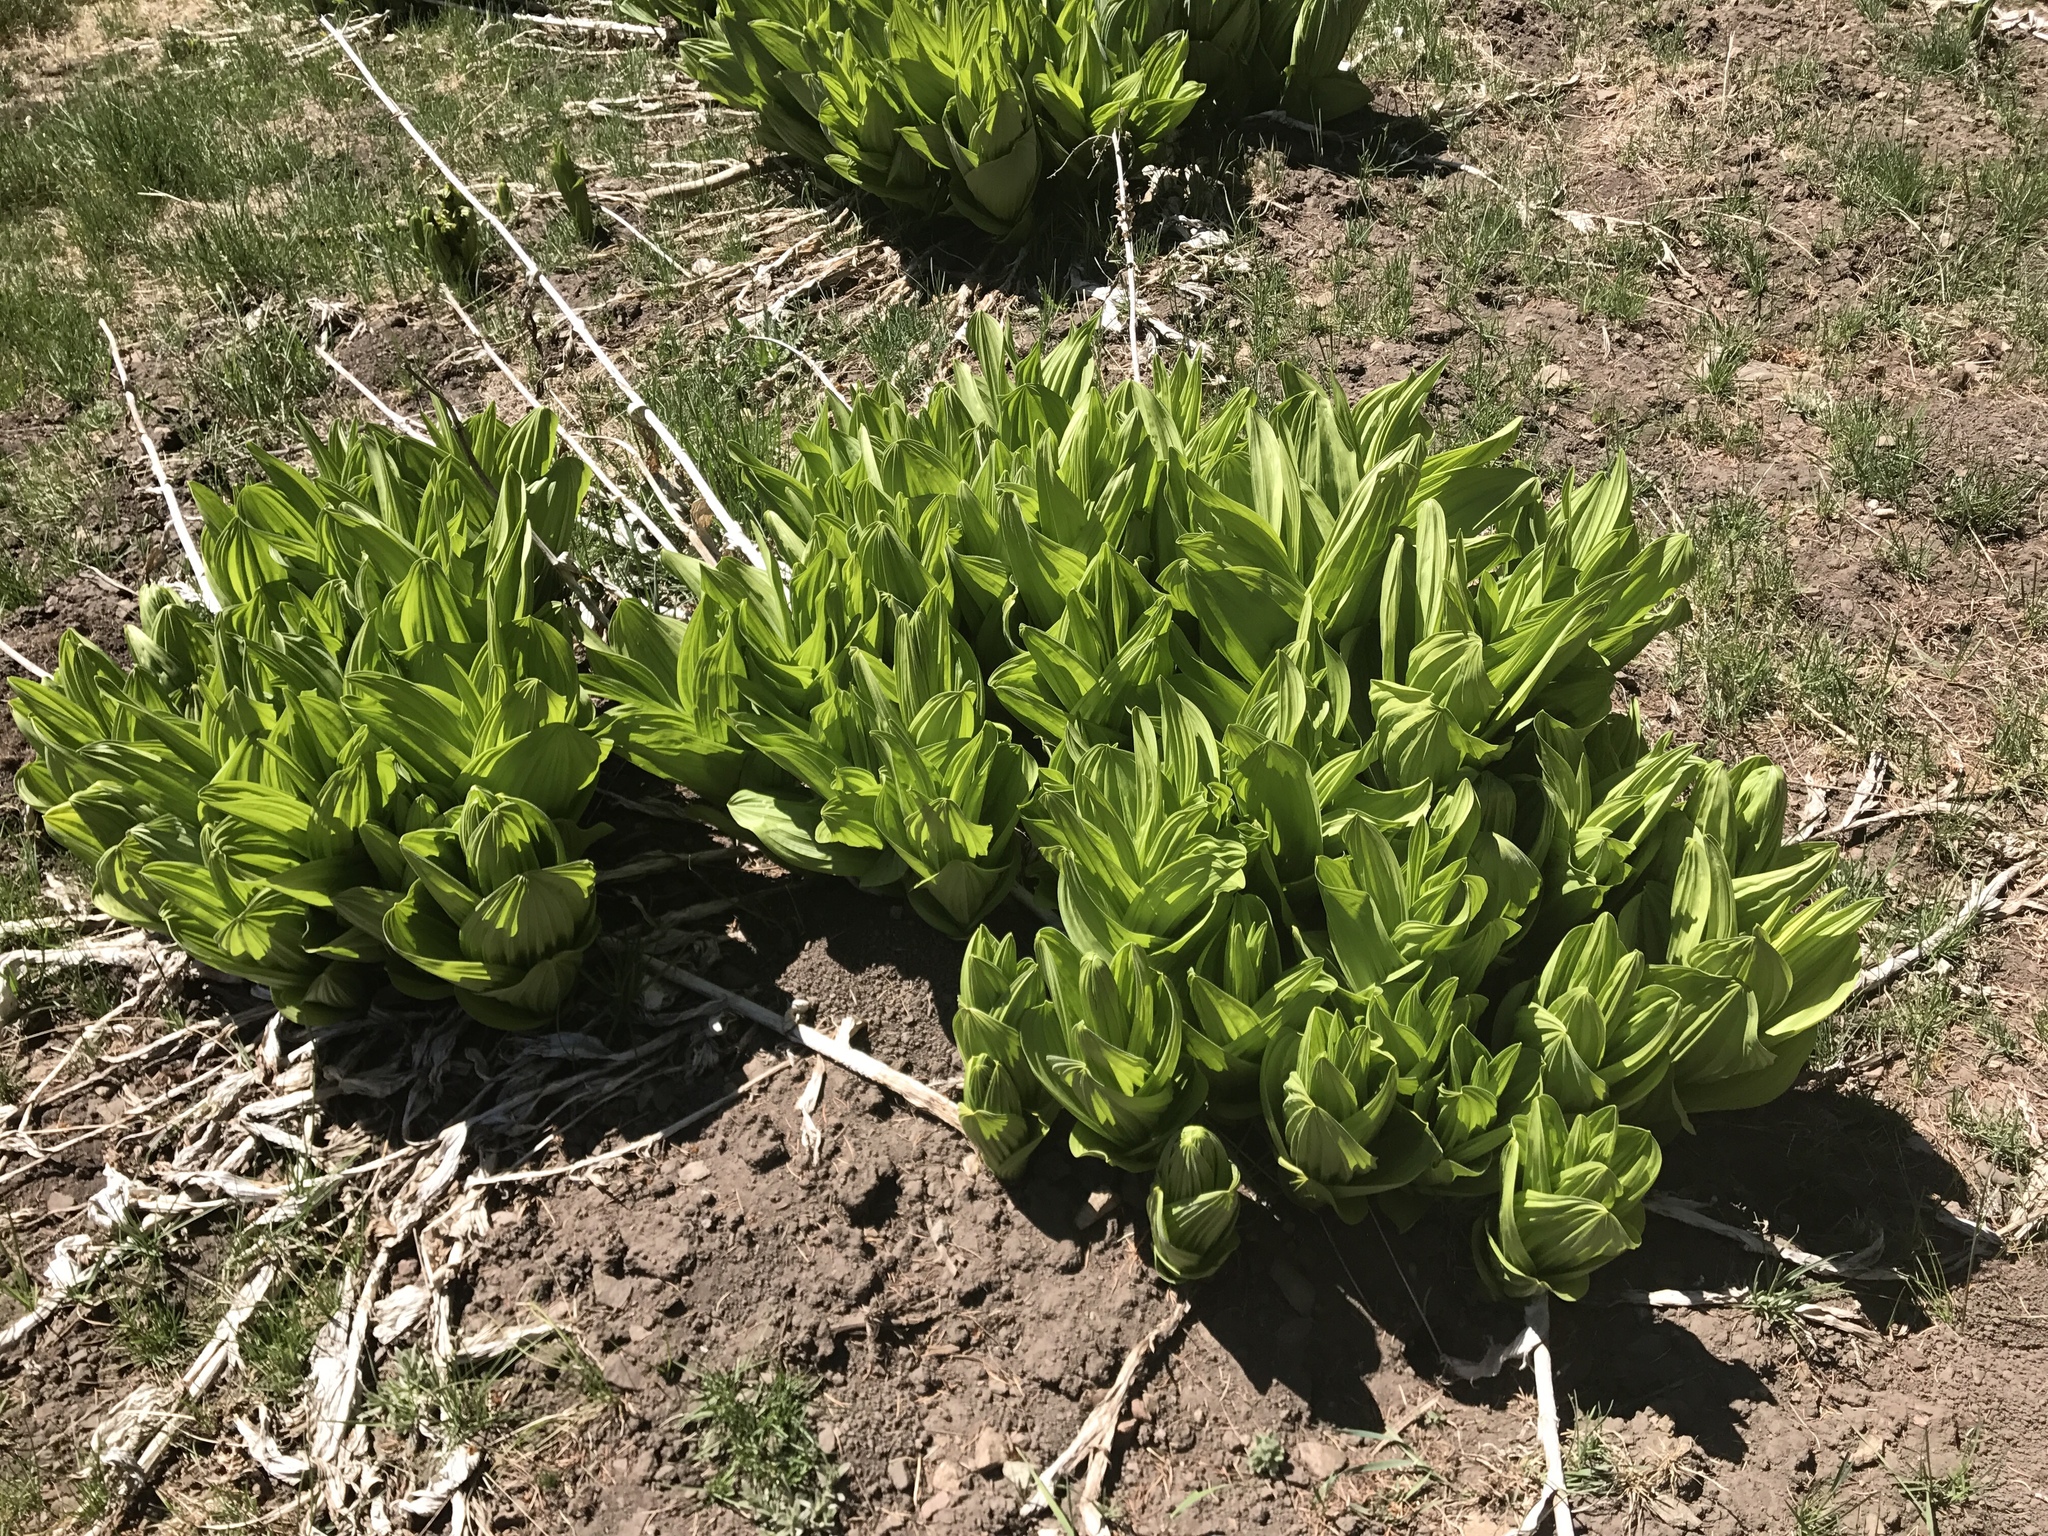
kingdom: Plantae
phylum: Tracheophyta
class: Liliopsida
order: Liliales
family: Melanthiaceae
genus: Veratrum
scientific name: Veratrum californicum
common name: California veratrum
